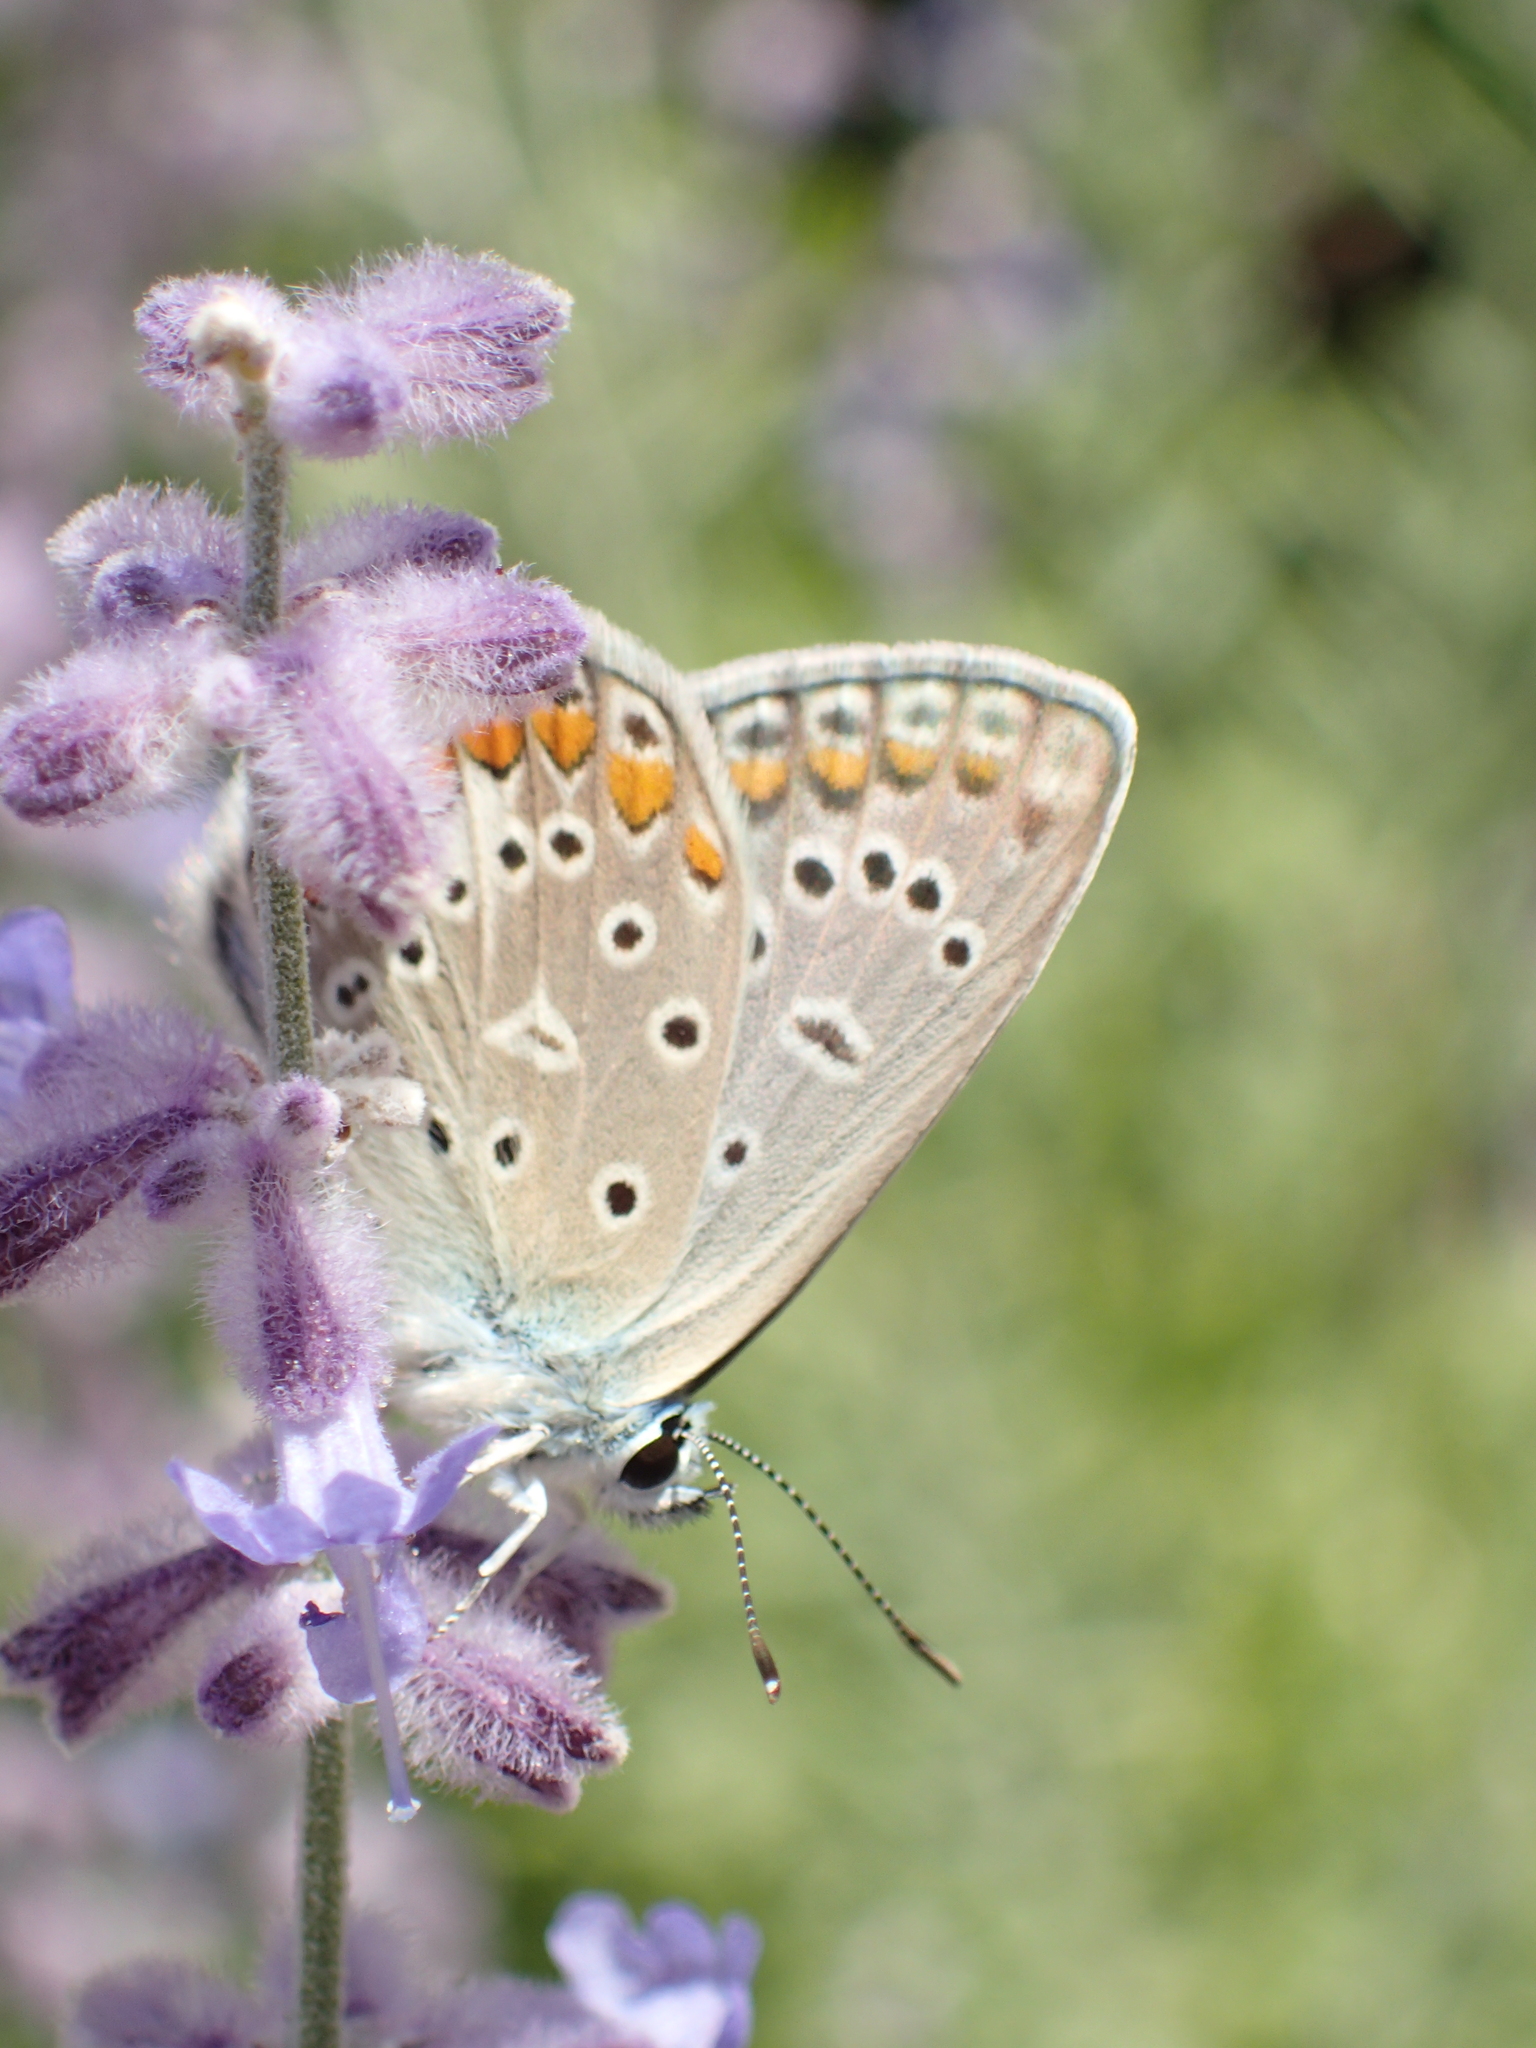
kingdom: Animalia
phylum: Arthropoda
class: Insecta
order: Lepidoptera
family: Lycaenidae
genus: Polyommatus
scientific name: Polyommatus icarus
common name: Common blue
